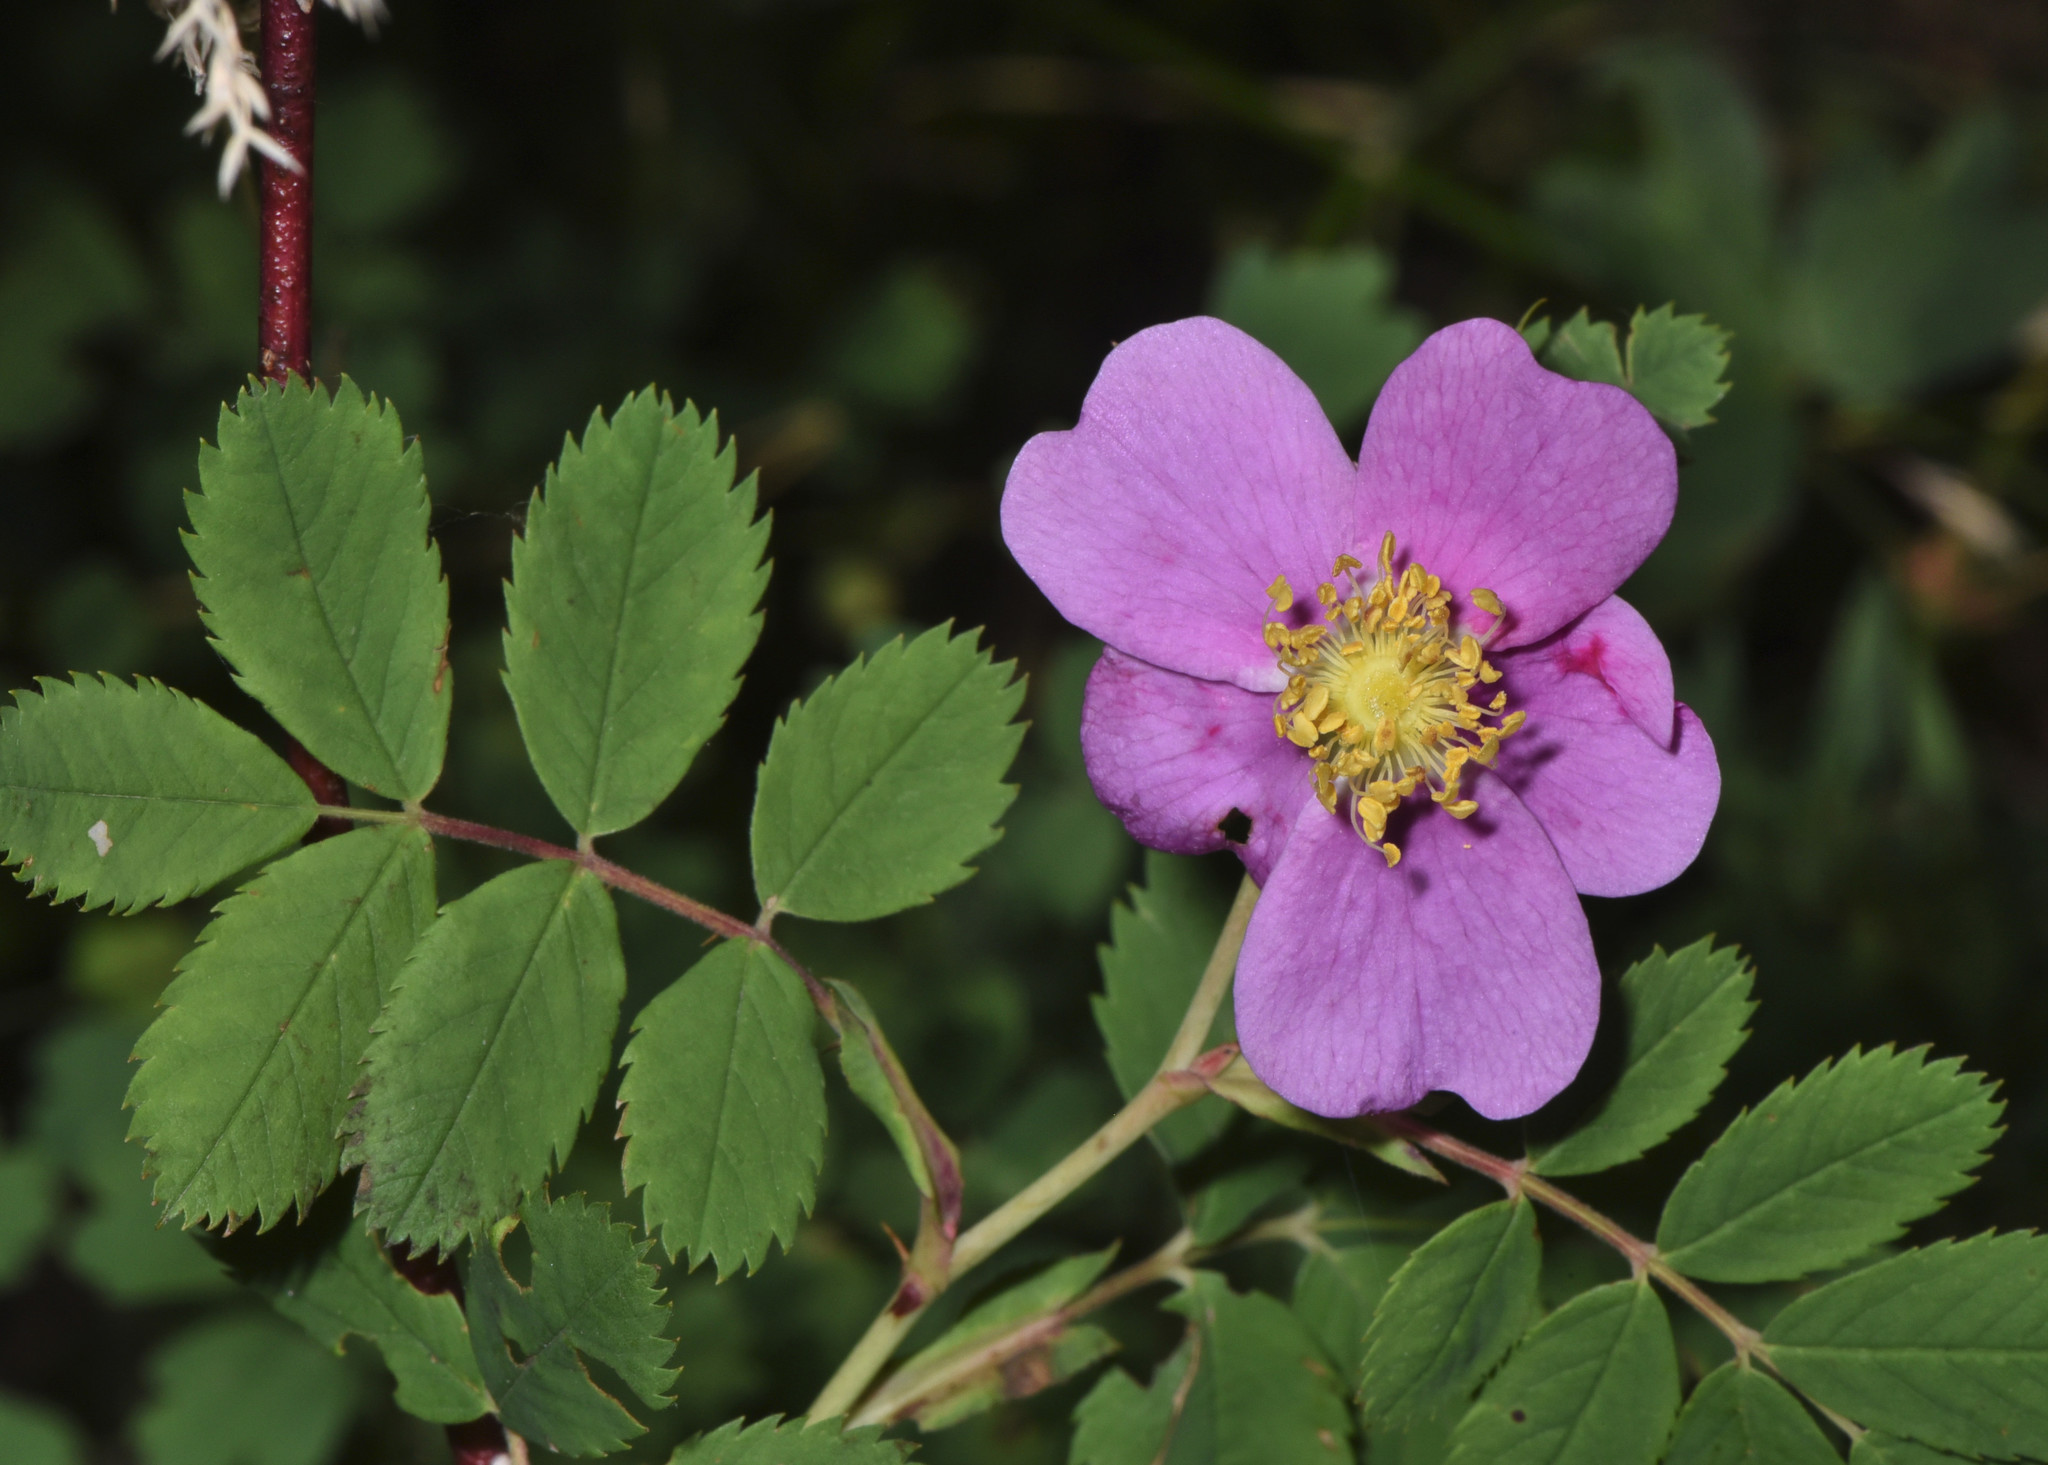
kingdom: Plantae
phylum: Tracheophyta
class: Magnoliopsida
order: Rosales
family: Rosaceae
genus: Rosa
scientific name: Rosa woodsii
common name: Woods's rose
